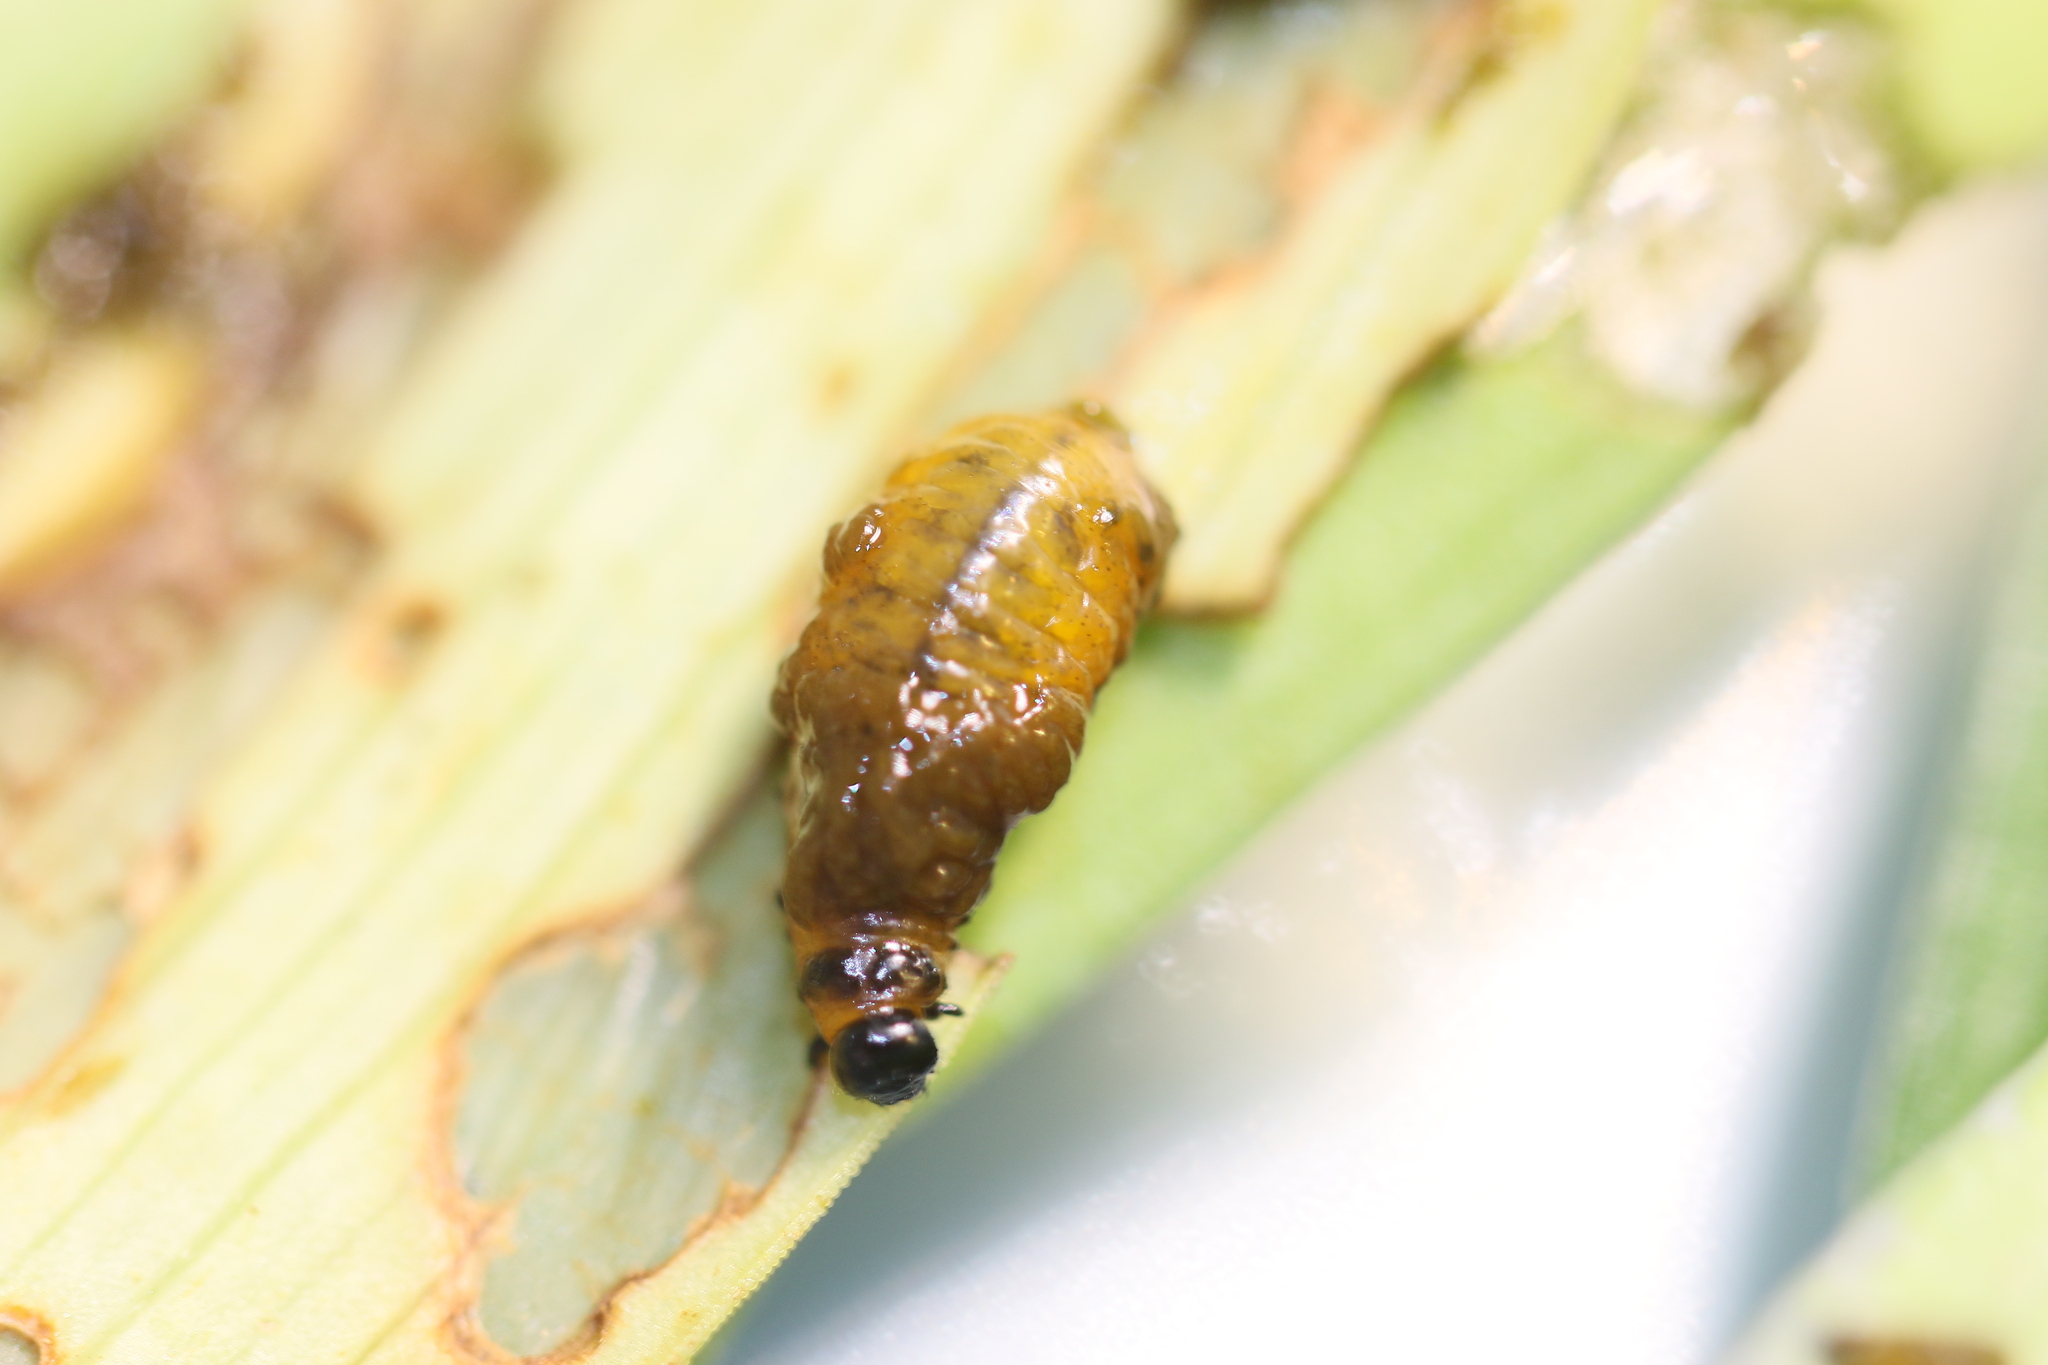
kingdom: Animalia
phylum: Arthropoda
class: Insecta
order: Coleoptera
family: Chrysomelidae
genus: Lilioceris
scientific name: Lilioceris lilii
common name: Lily beetle
